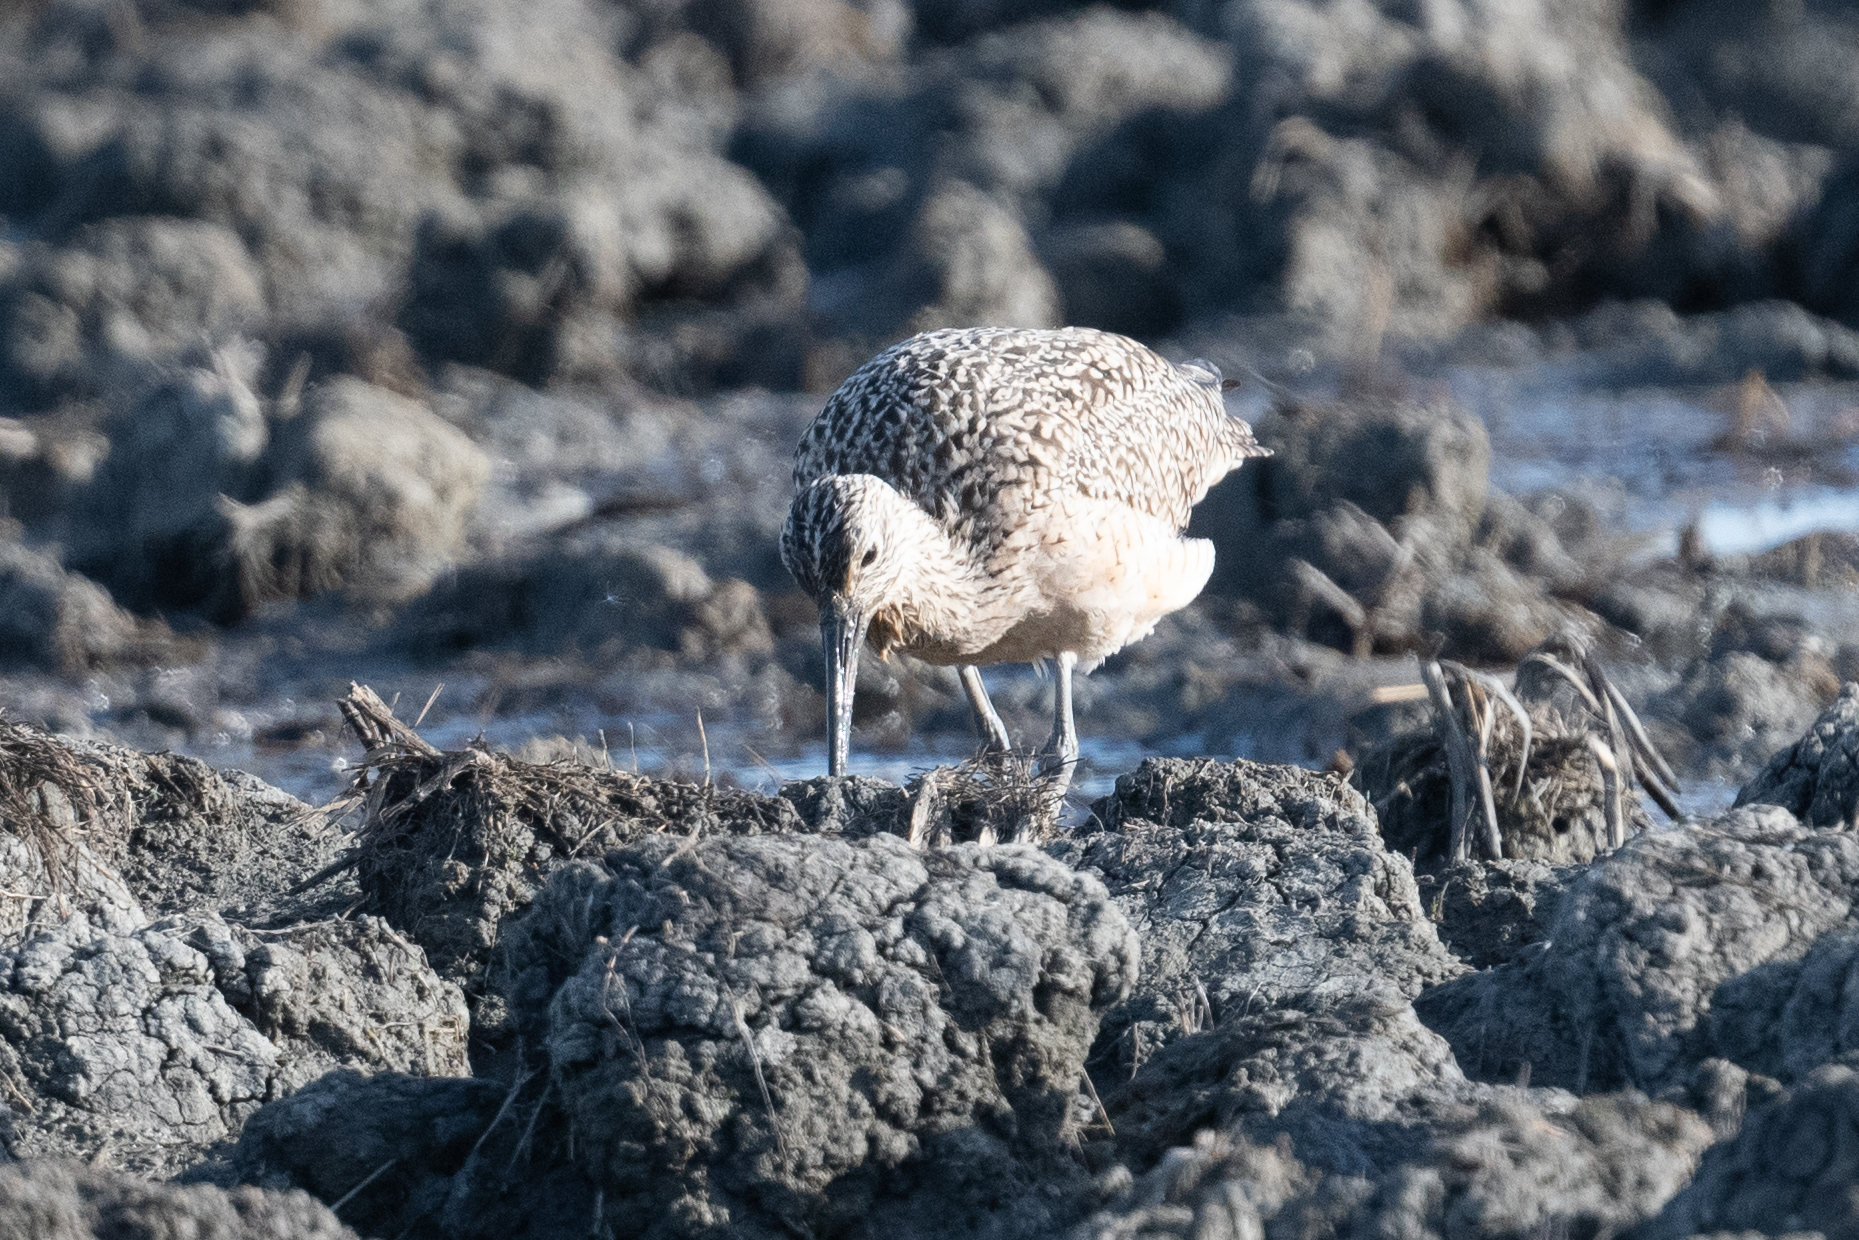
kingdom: Animalia
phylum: Chordata
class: Aves
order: Charadriiformes
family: Scolopacidae
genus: Numenius
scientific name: Numenius americanus
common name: Long-billed curlew
